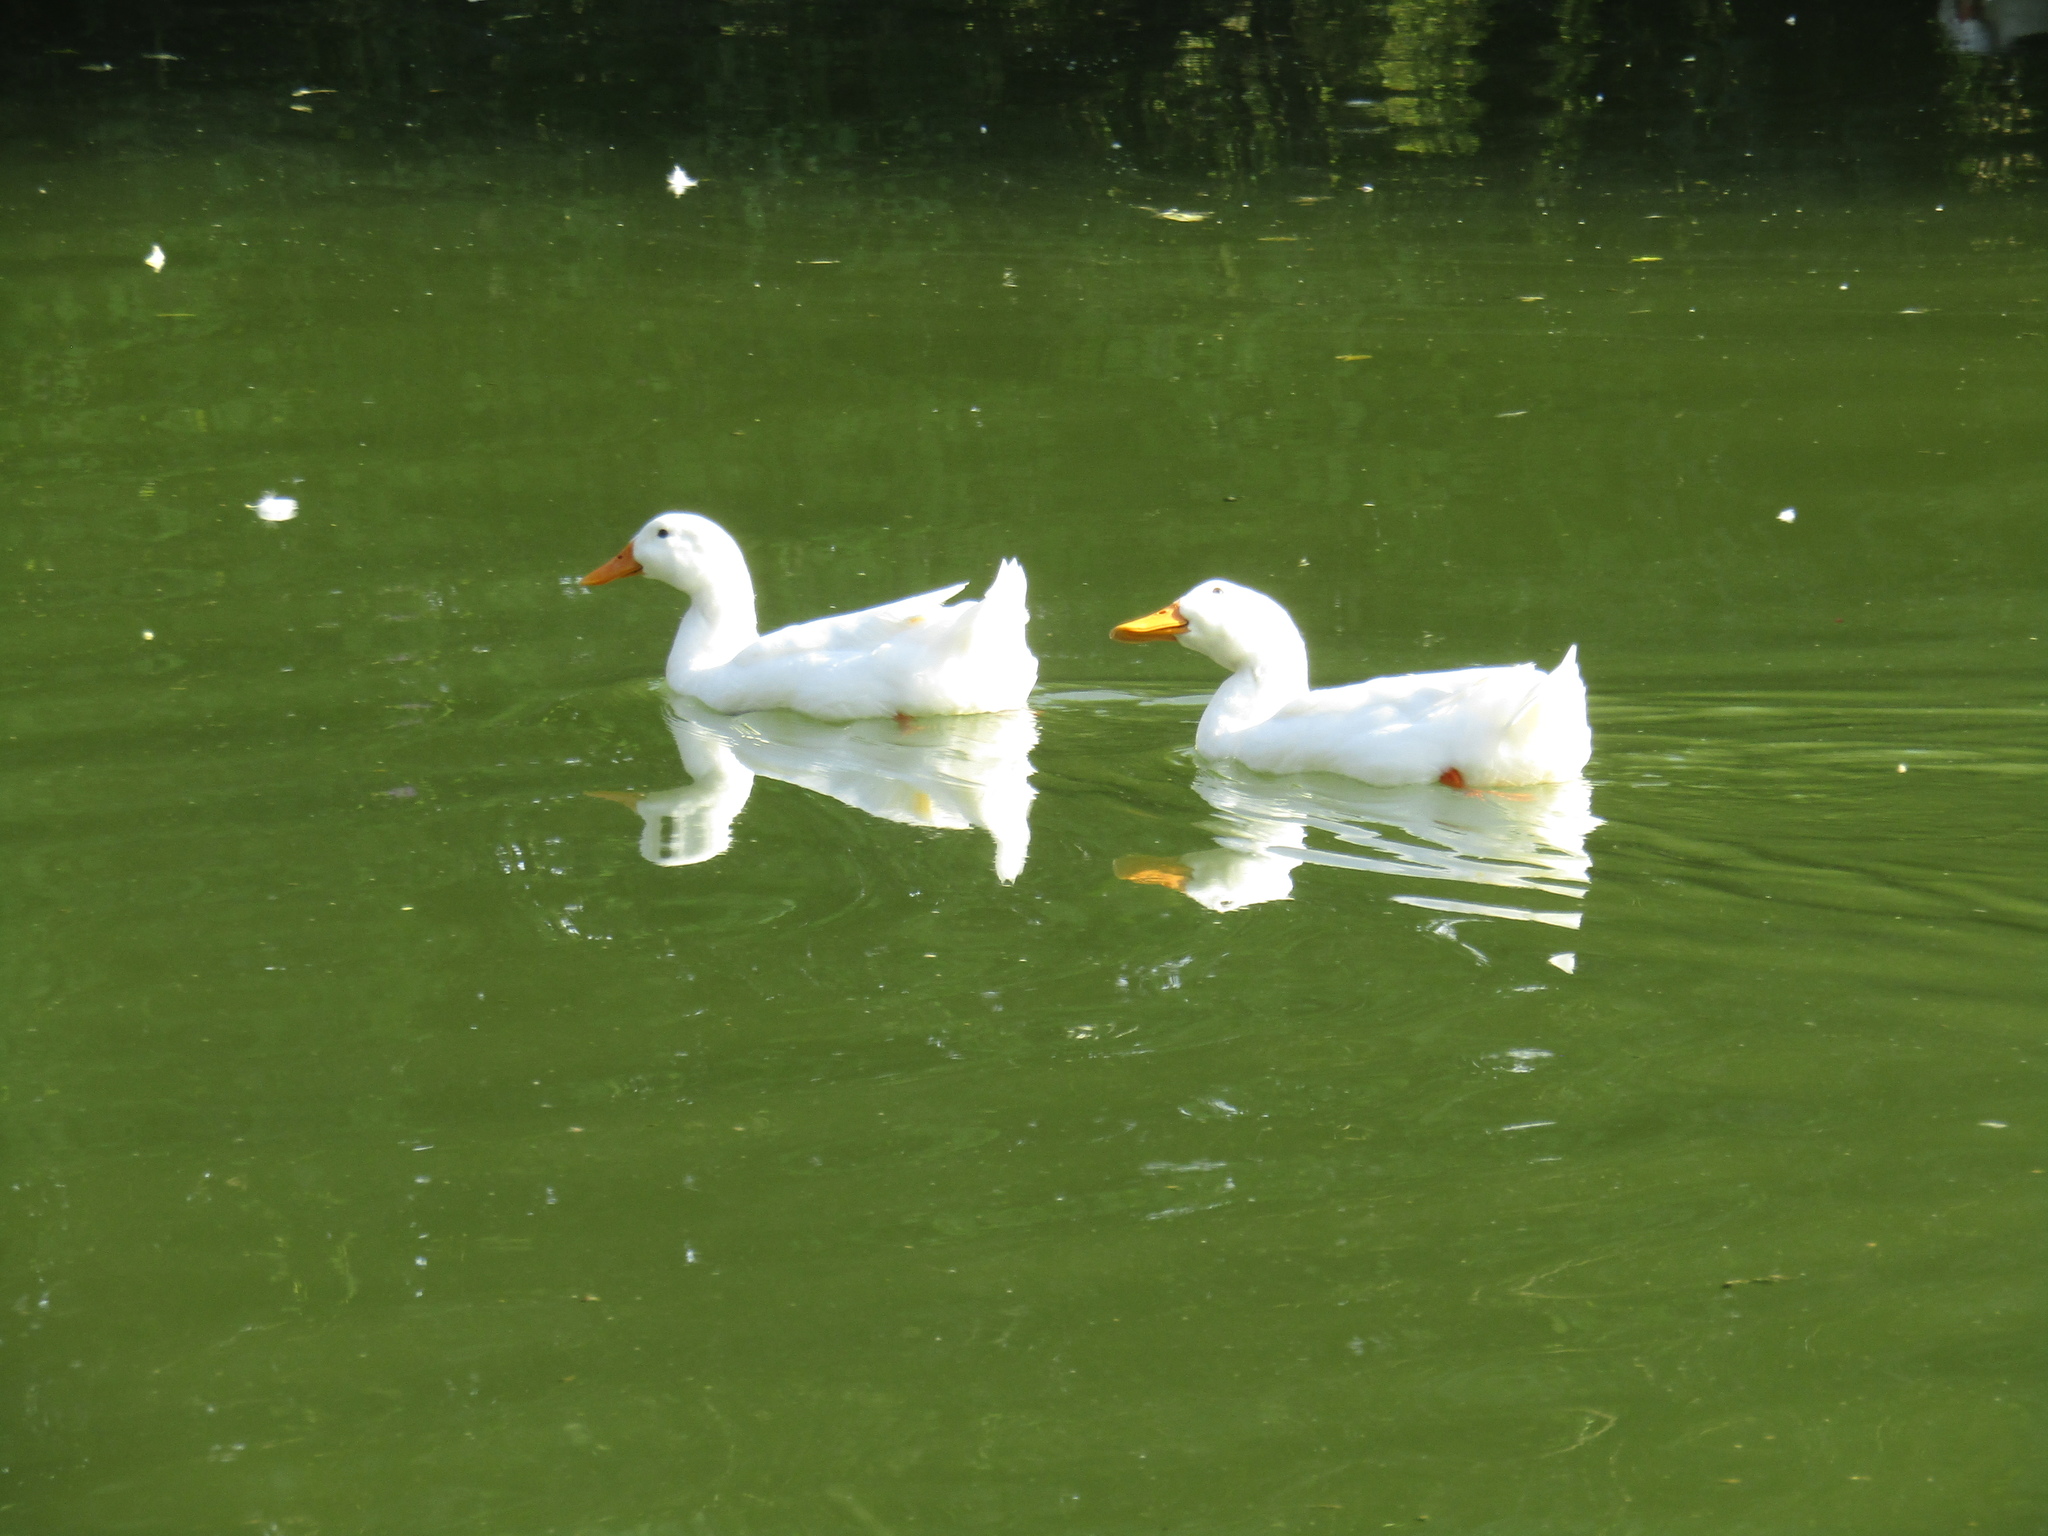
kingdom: Animalia
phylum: Chordata
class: Aves
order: Anseriformes
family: Anatidae
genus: Anas
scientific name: Anas platyrhynchos
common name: Mallard
